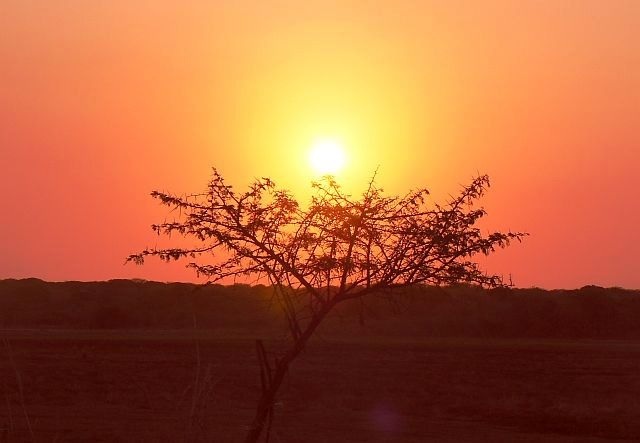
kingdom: Plantae
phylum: Tracheophyta
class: Magnoliopsida
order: Fabales
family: Fabaceae
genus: Vachellia
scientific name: Vachellia nilotica
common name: Arabic gumtree
